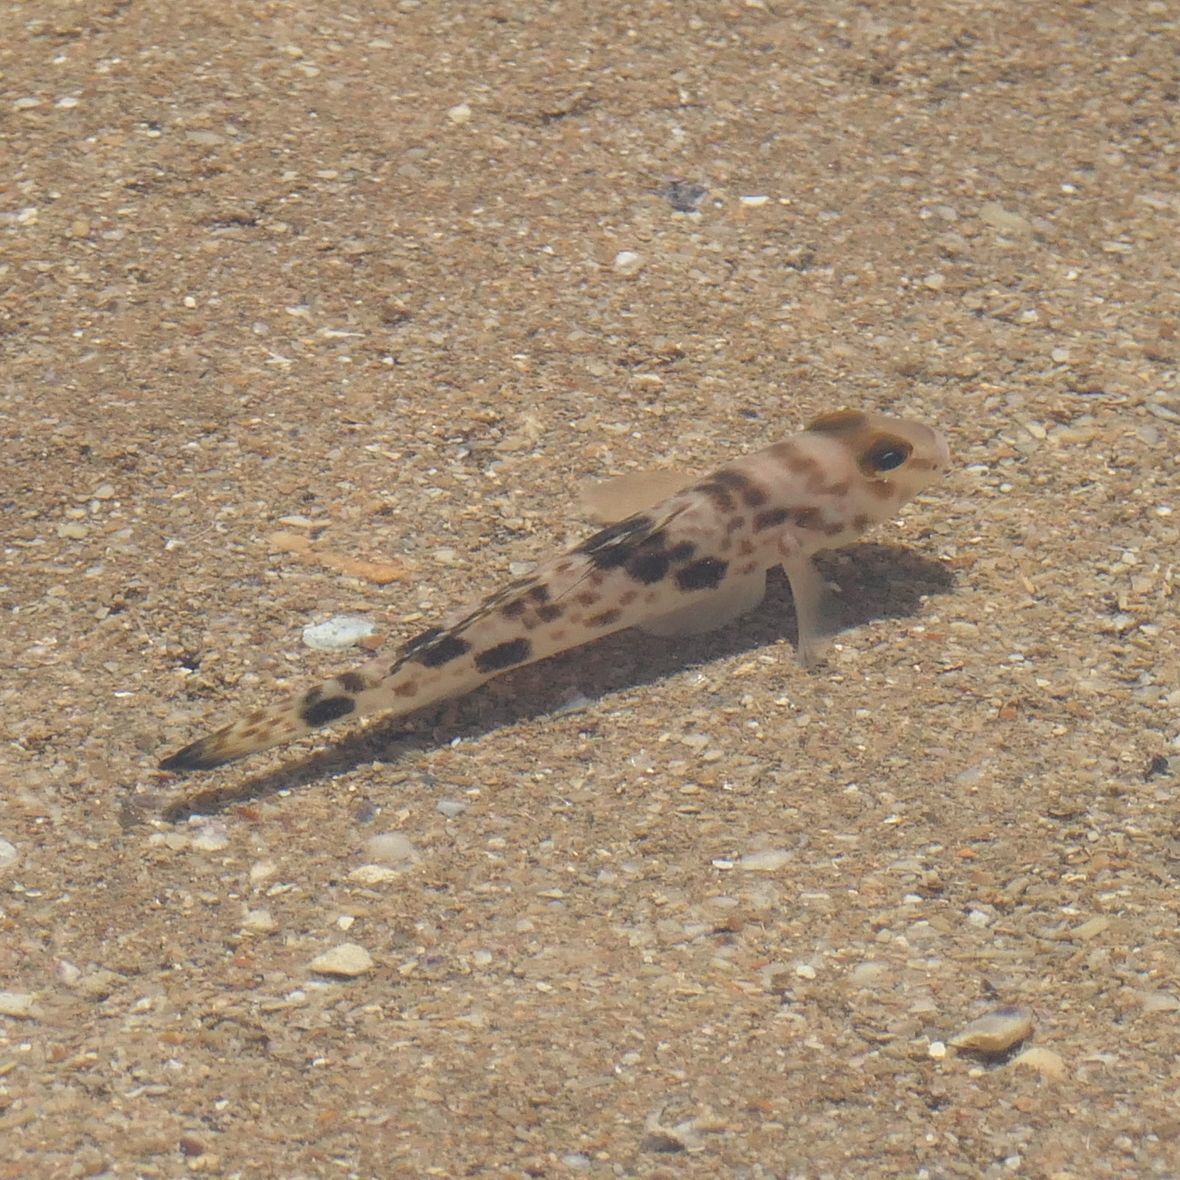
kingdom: Animalia
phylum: Chordata
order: Perciformes
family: Gobiidae
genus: Acentrogobius
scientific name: Acentrogobius nebulosus
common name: Shadow goby
